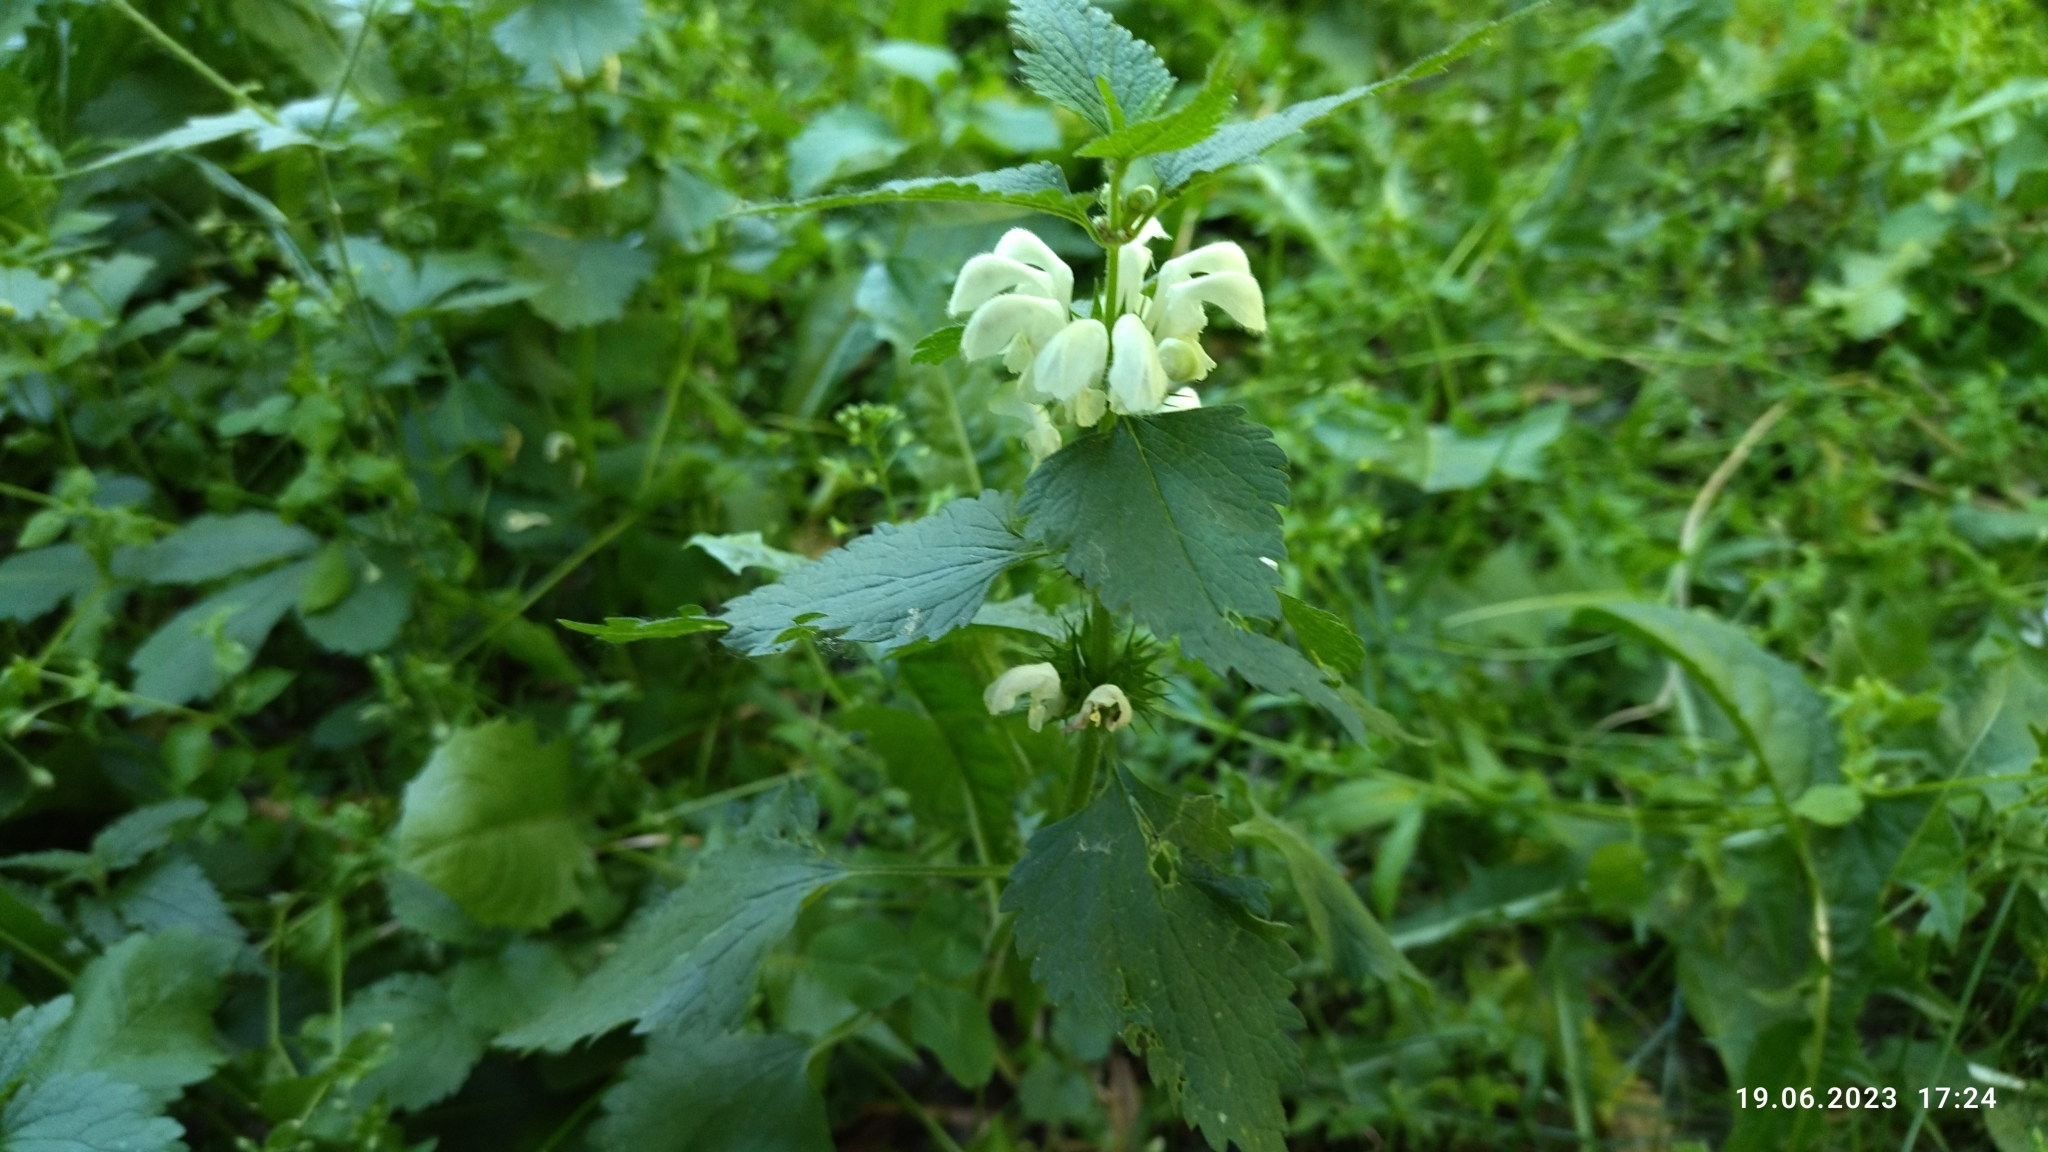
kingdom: Plantae
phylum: Tracheophyta
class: Magnoliopsida
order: Lamiales
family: Lamiaceae
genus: Lamium
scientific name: Lamium album
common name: White dead-nettle
